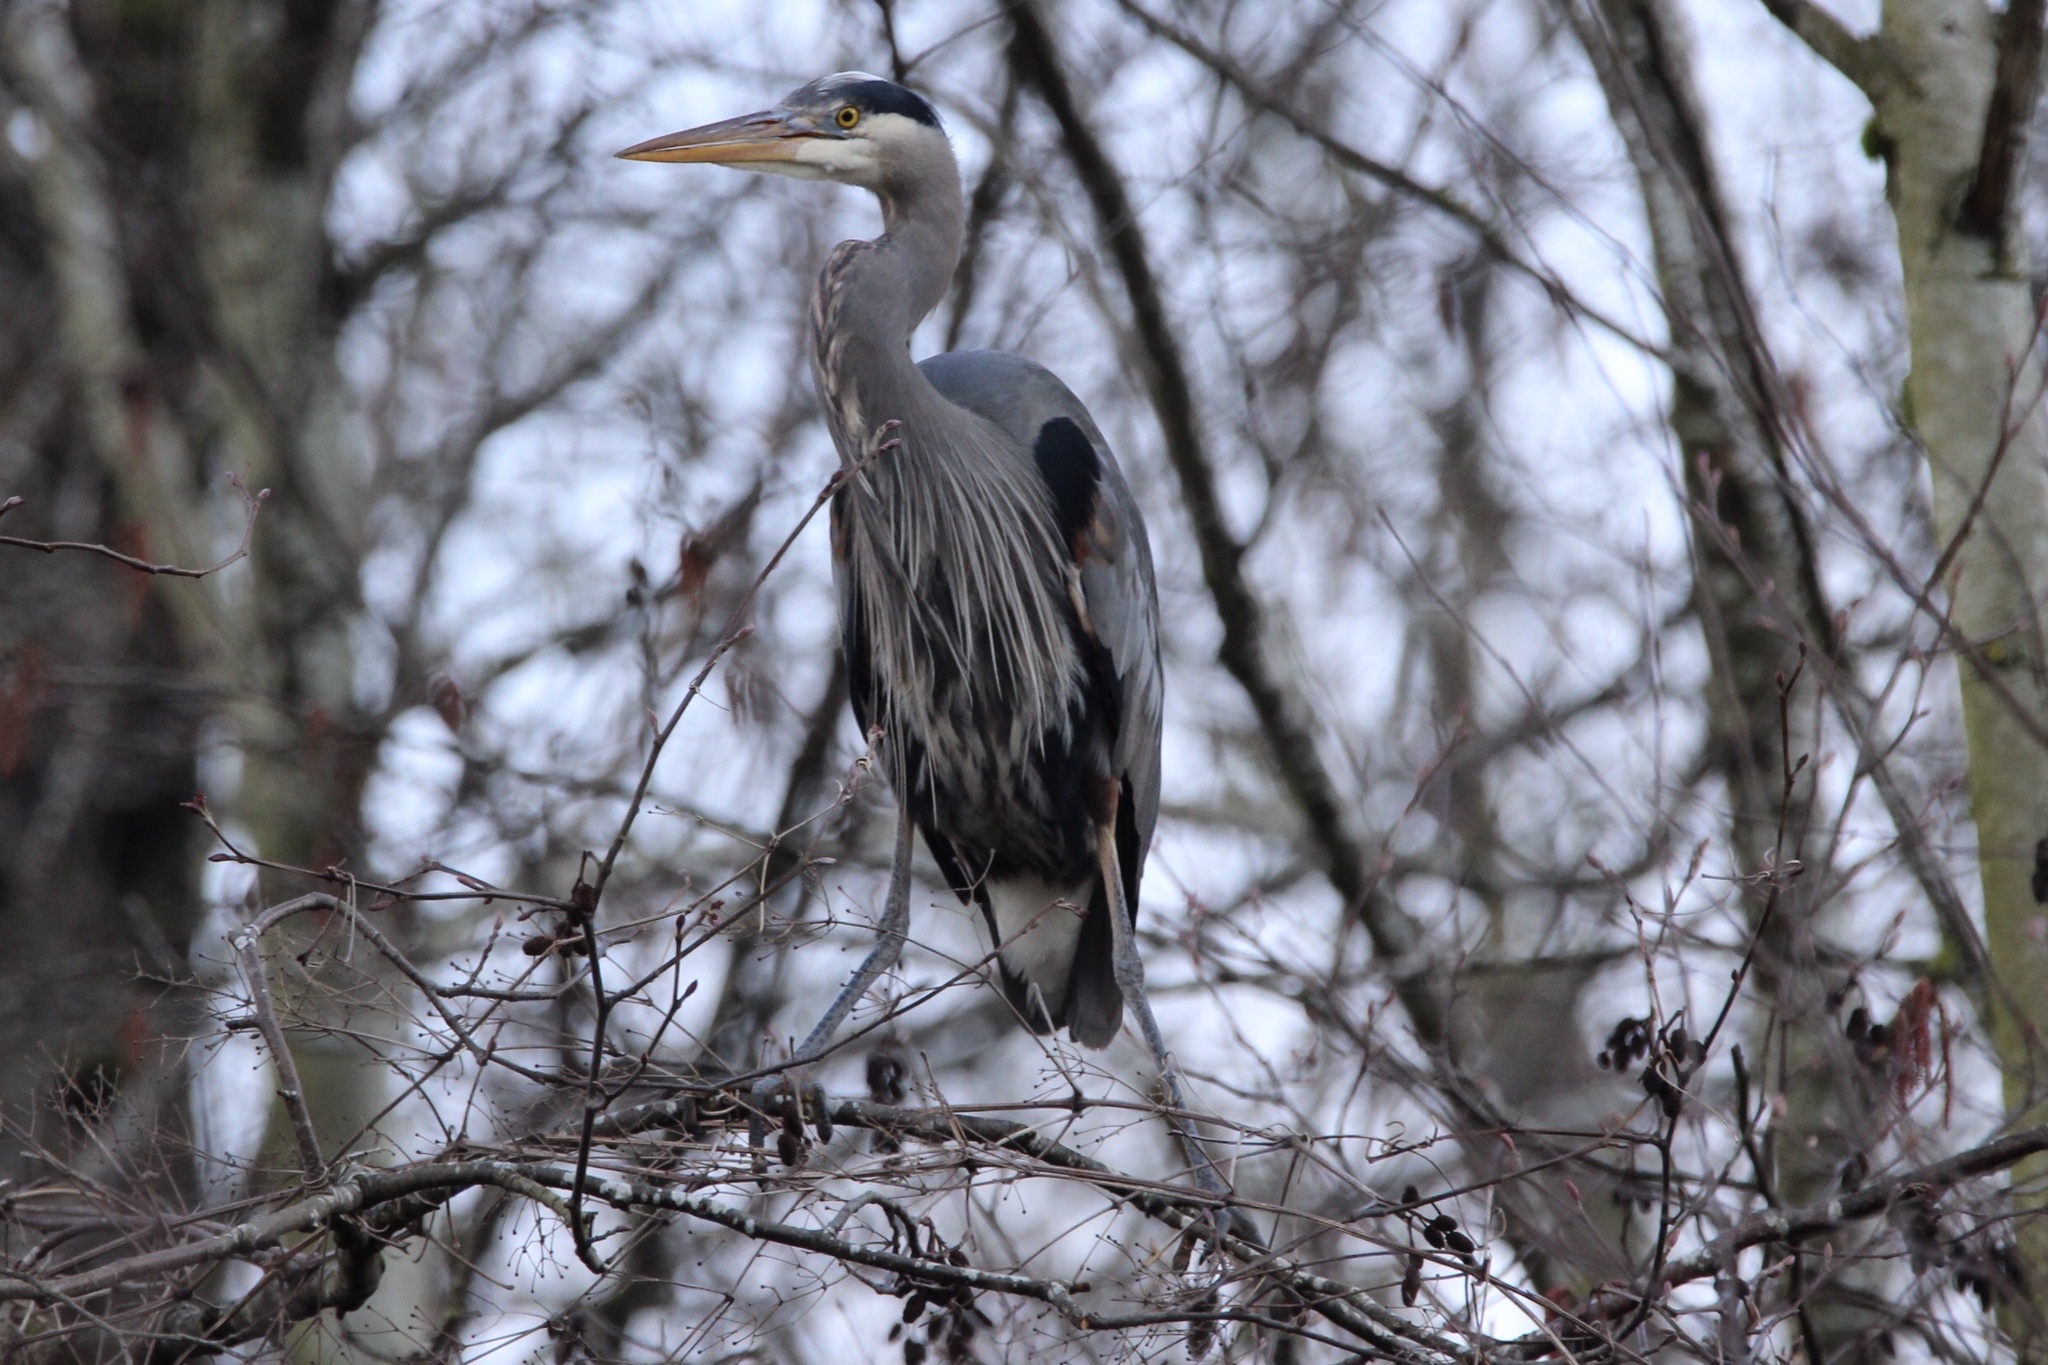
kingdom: Animalia
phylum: Chordata
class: Aves
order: Pelecaniformes
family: Ardeidae
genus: Ardea
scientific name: Ardea herodias
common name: Great blue heron
